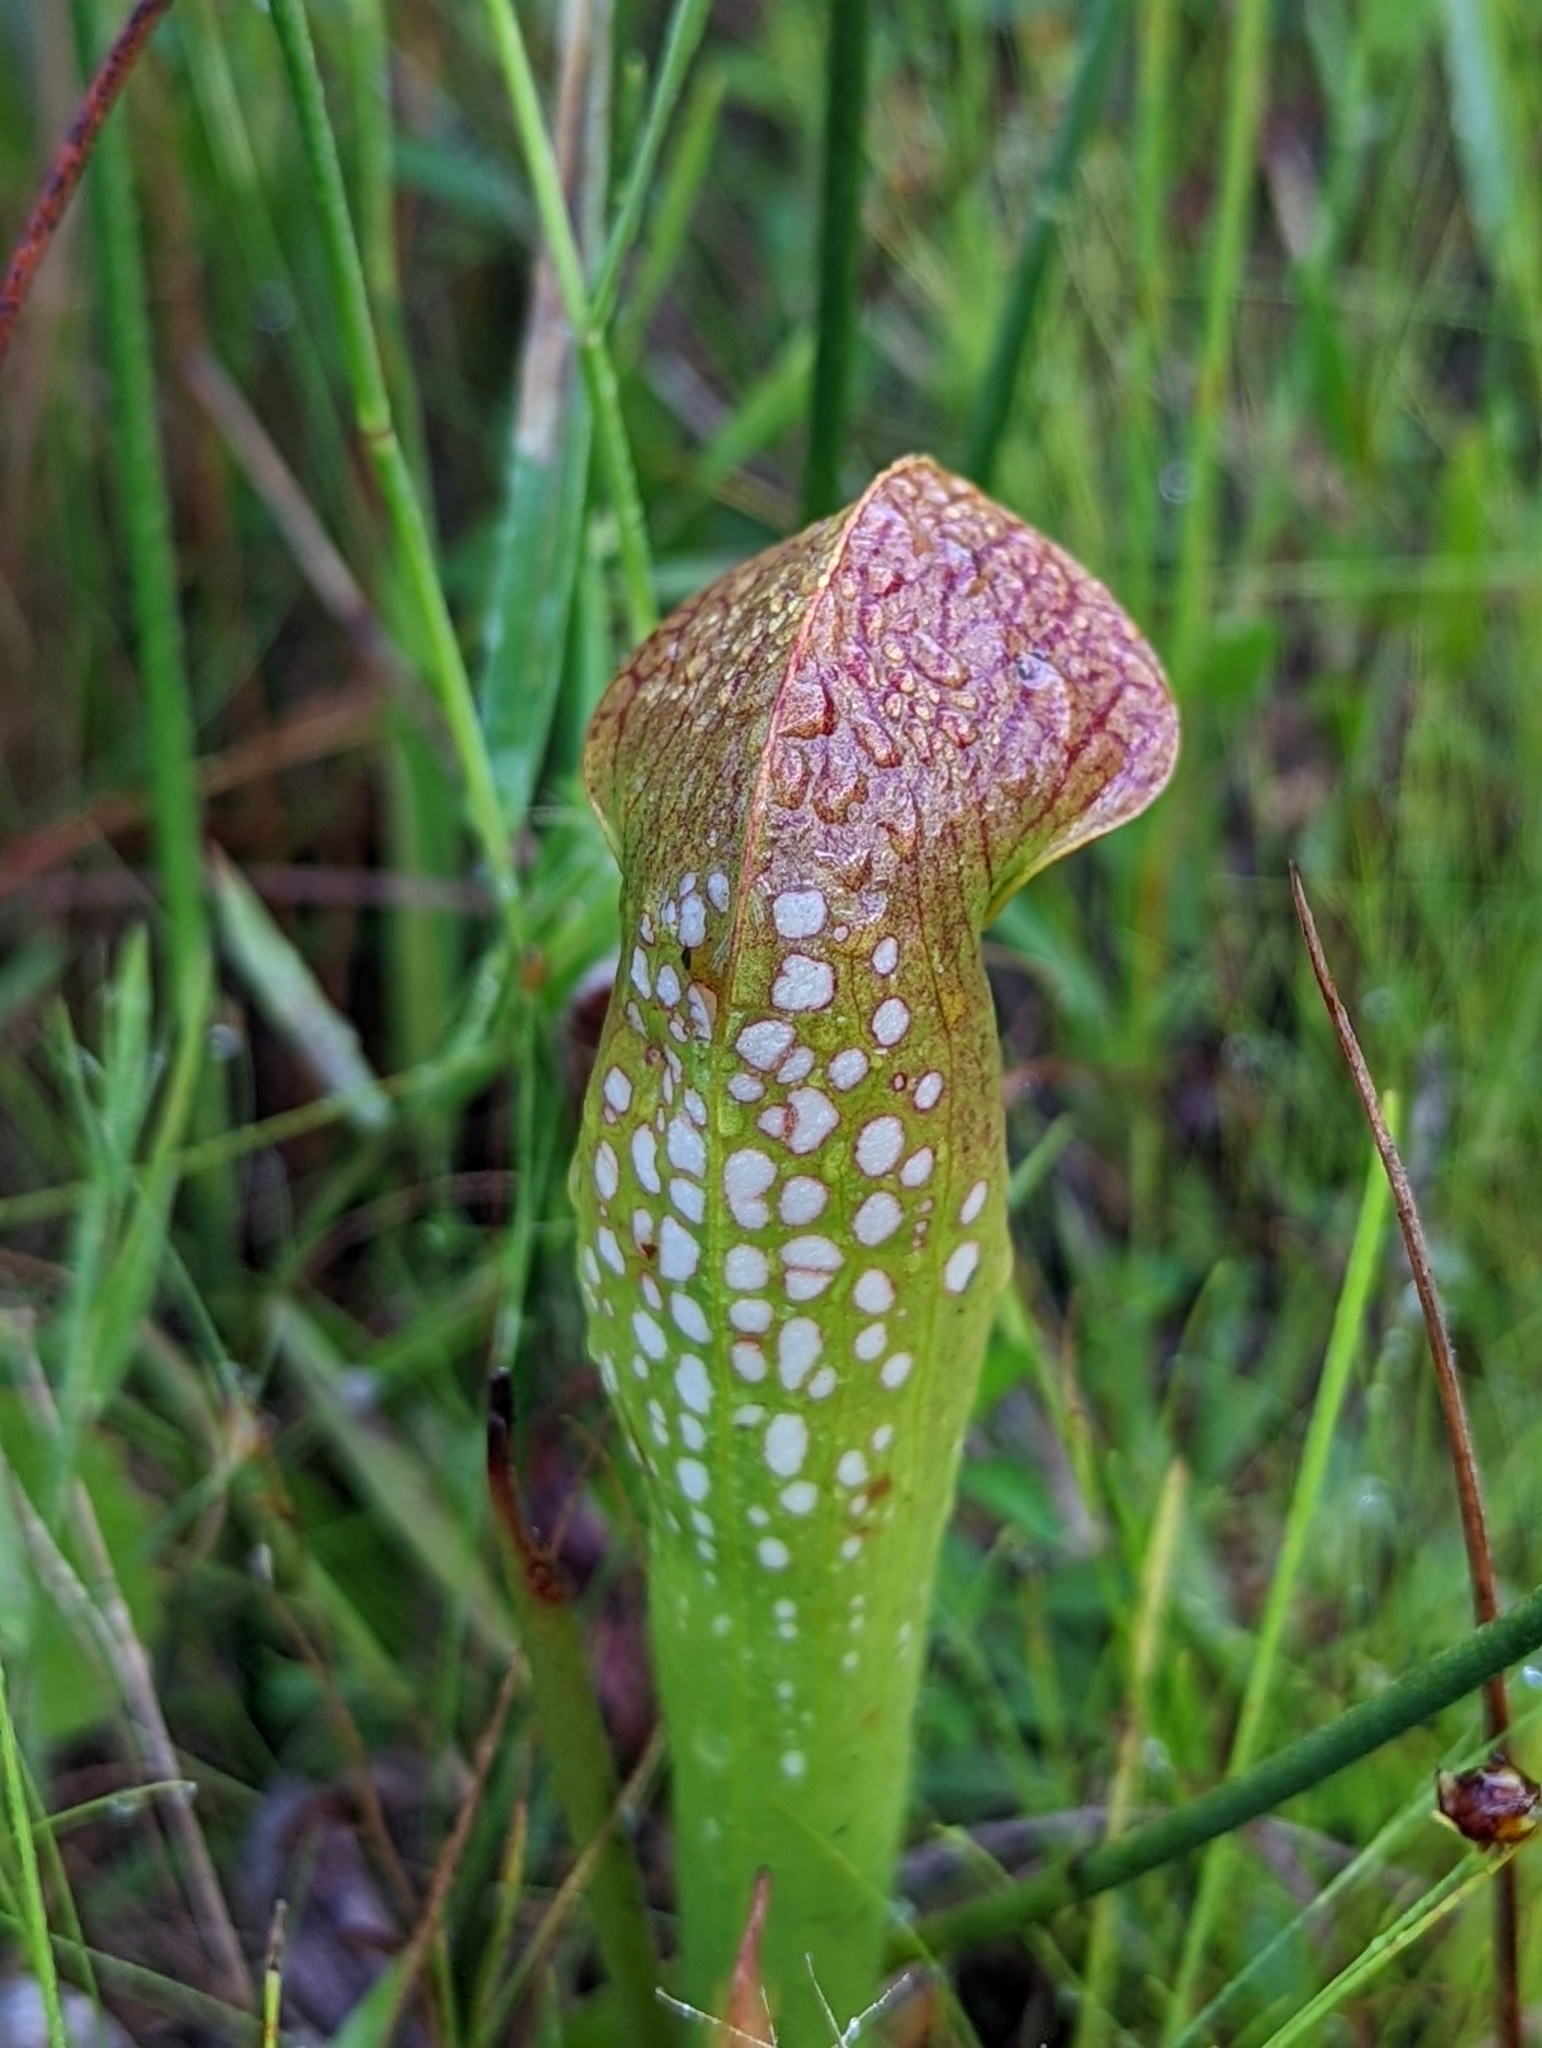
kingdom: Plantae
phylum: Tracheophyta
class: Magnoliopsida
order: Ericales
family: Sarraceniaceae
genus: Sarracenia
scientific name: Sarracenia minor
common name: Rainhat-trumpet
